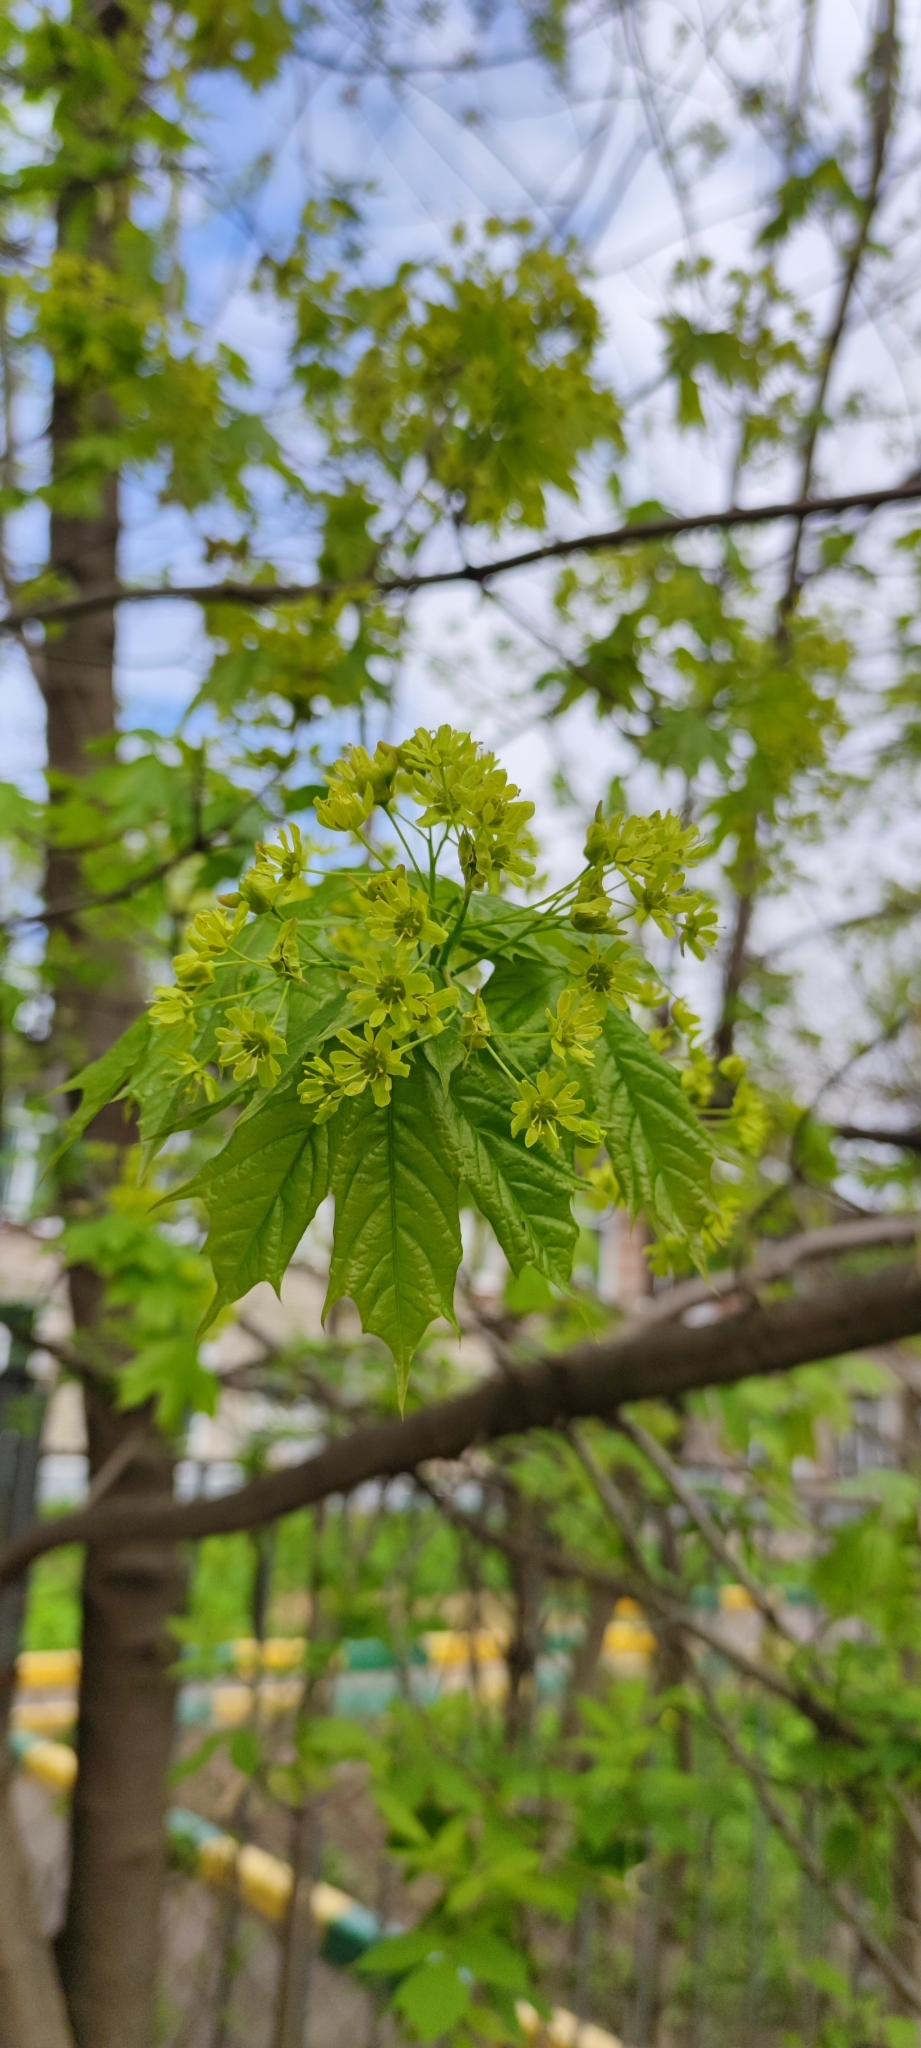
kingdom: Plantae
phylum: Tracheophyta
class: Magnoliopsida
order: Sapindales
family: Sapindaceae
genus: Acer
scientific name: Acer platanoides
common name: Norway maple
